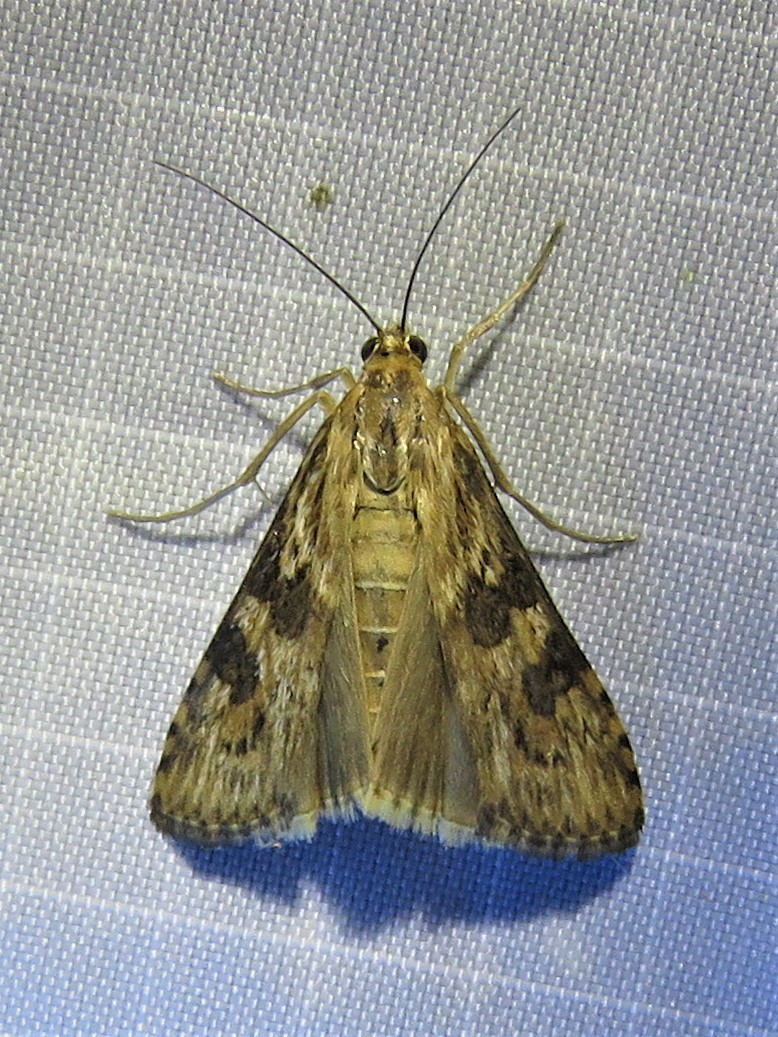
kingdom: Animalia
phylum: Arthropoda
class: Insecta
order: Lepidoptera
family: Crambidae
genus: Nomophila
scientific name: Nomophila nearctica
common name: American rush veneer
